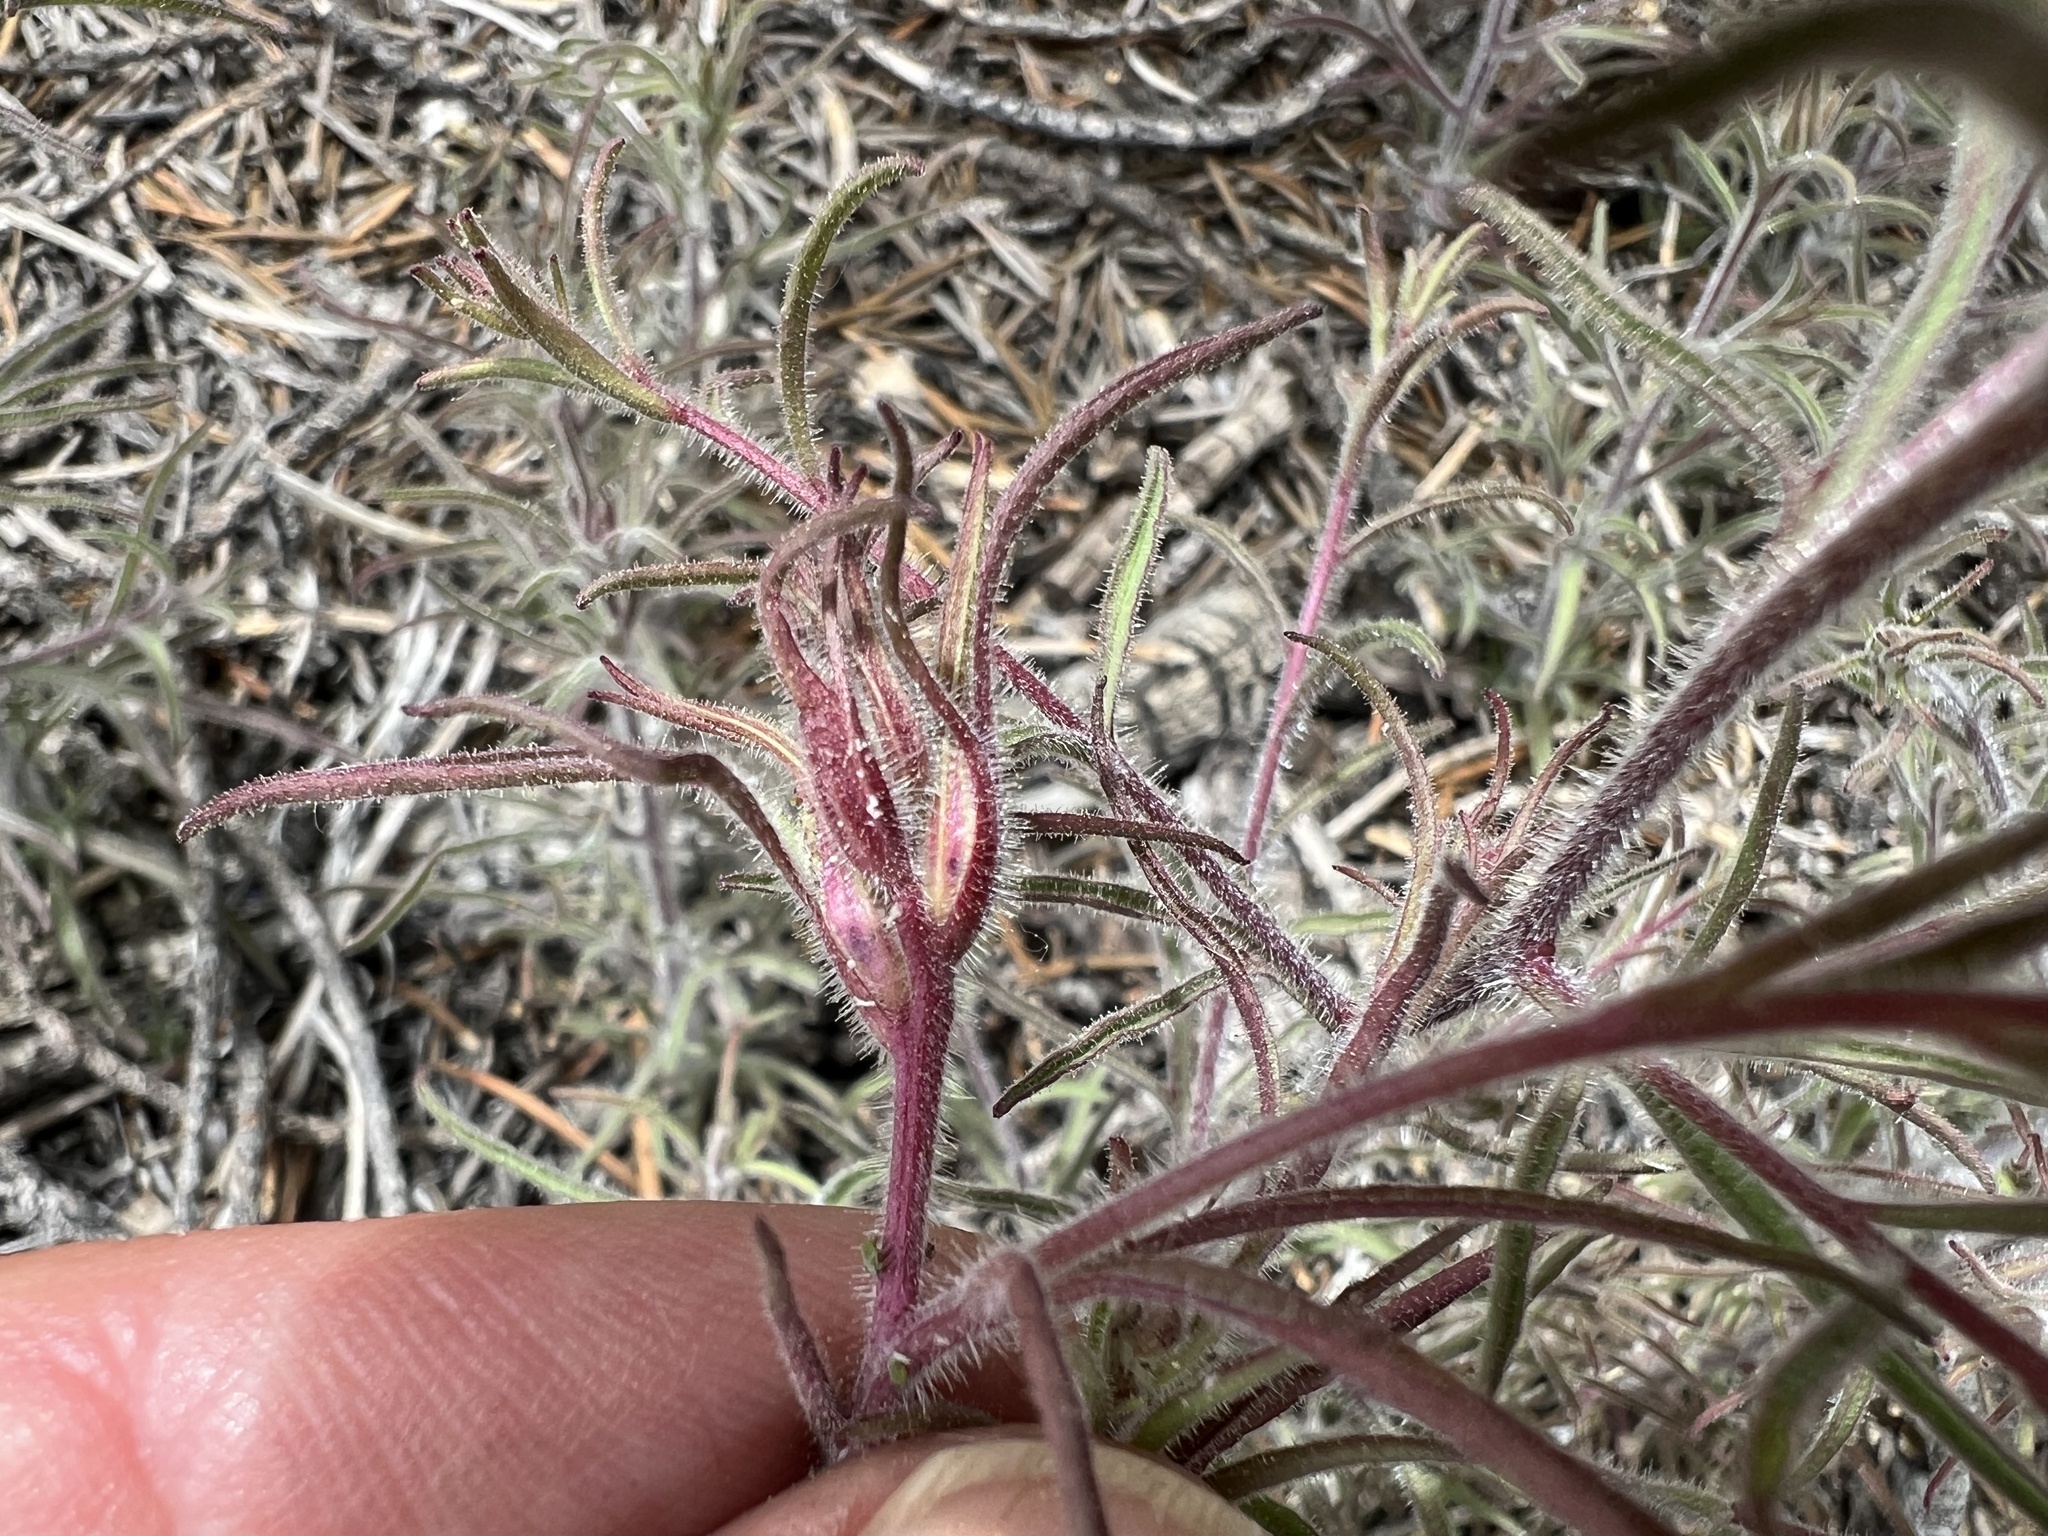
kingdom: Plantae
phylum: Tracheophyta
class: Magnoliopsida
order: Lamiales
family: Orobanchaceae
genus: Cordylanthus
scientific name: Cordylanthus kingii
